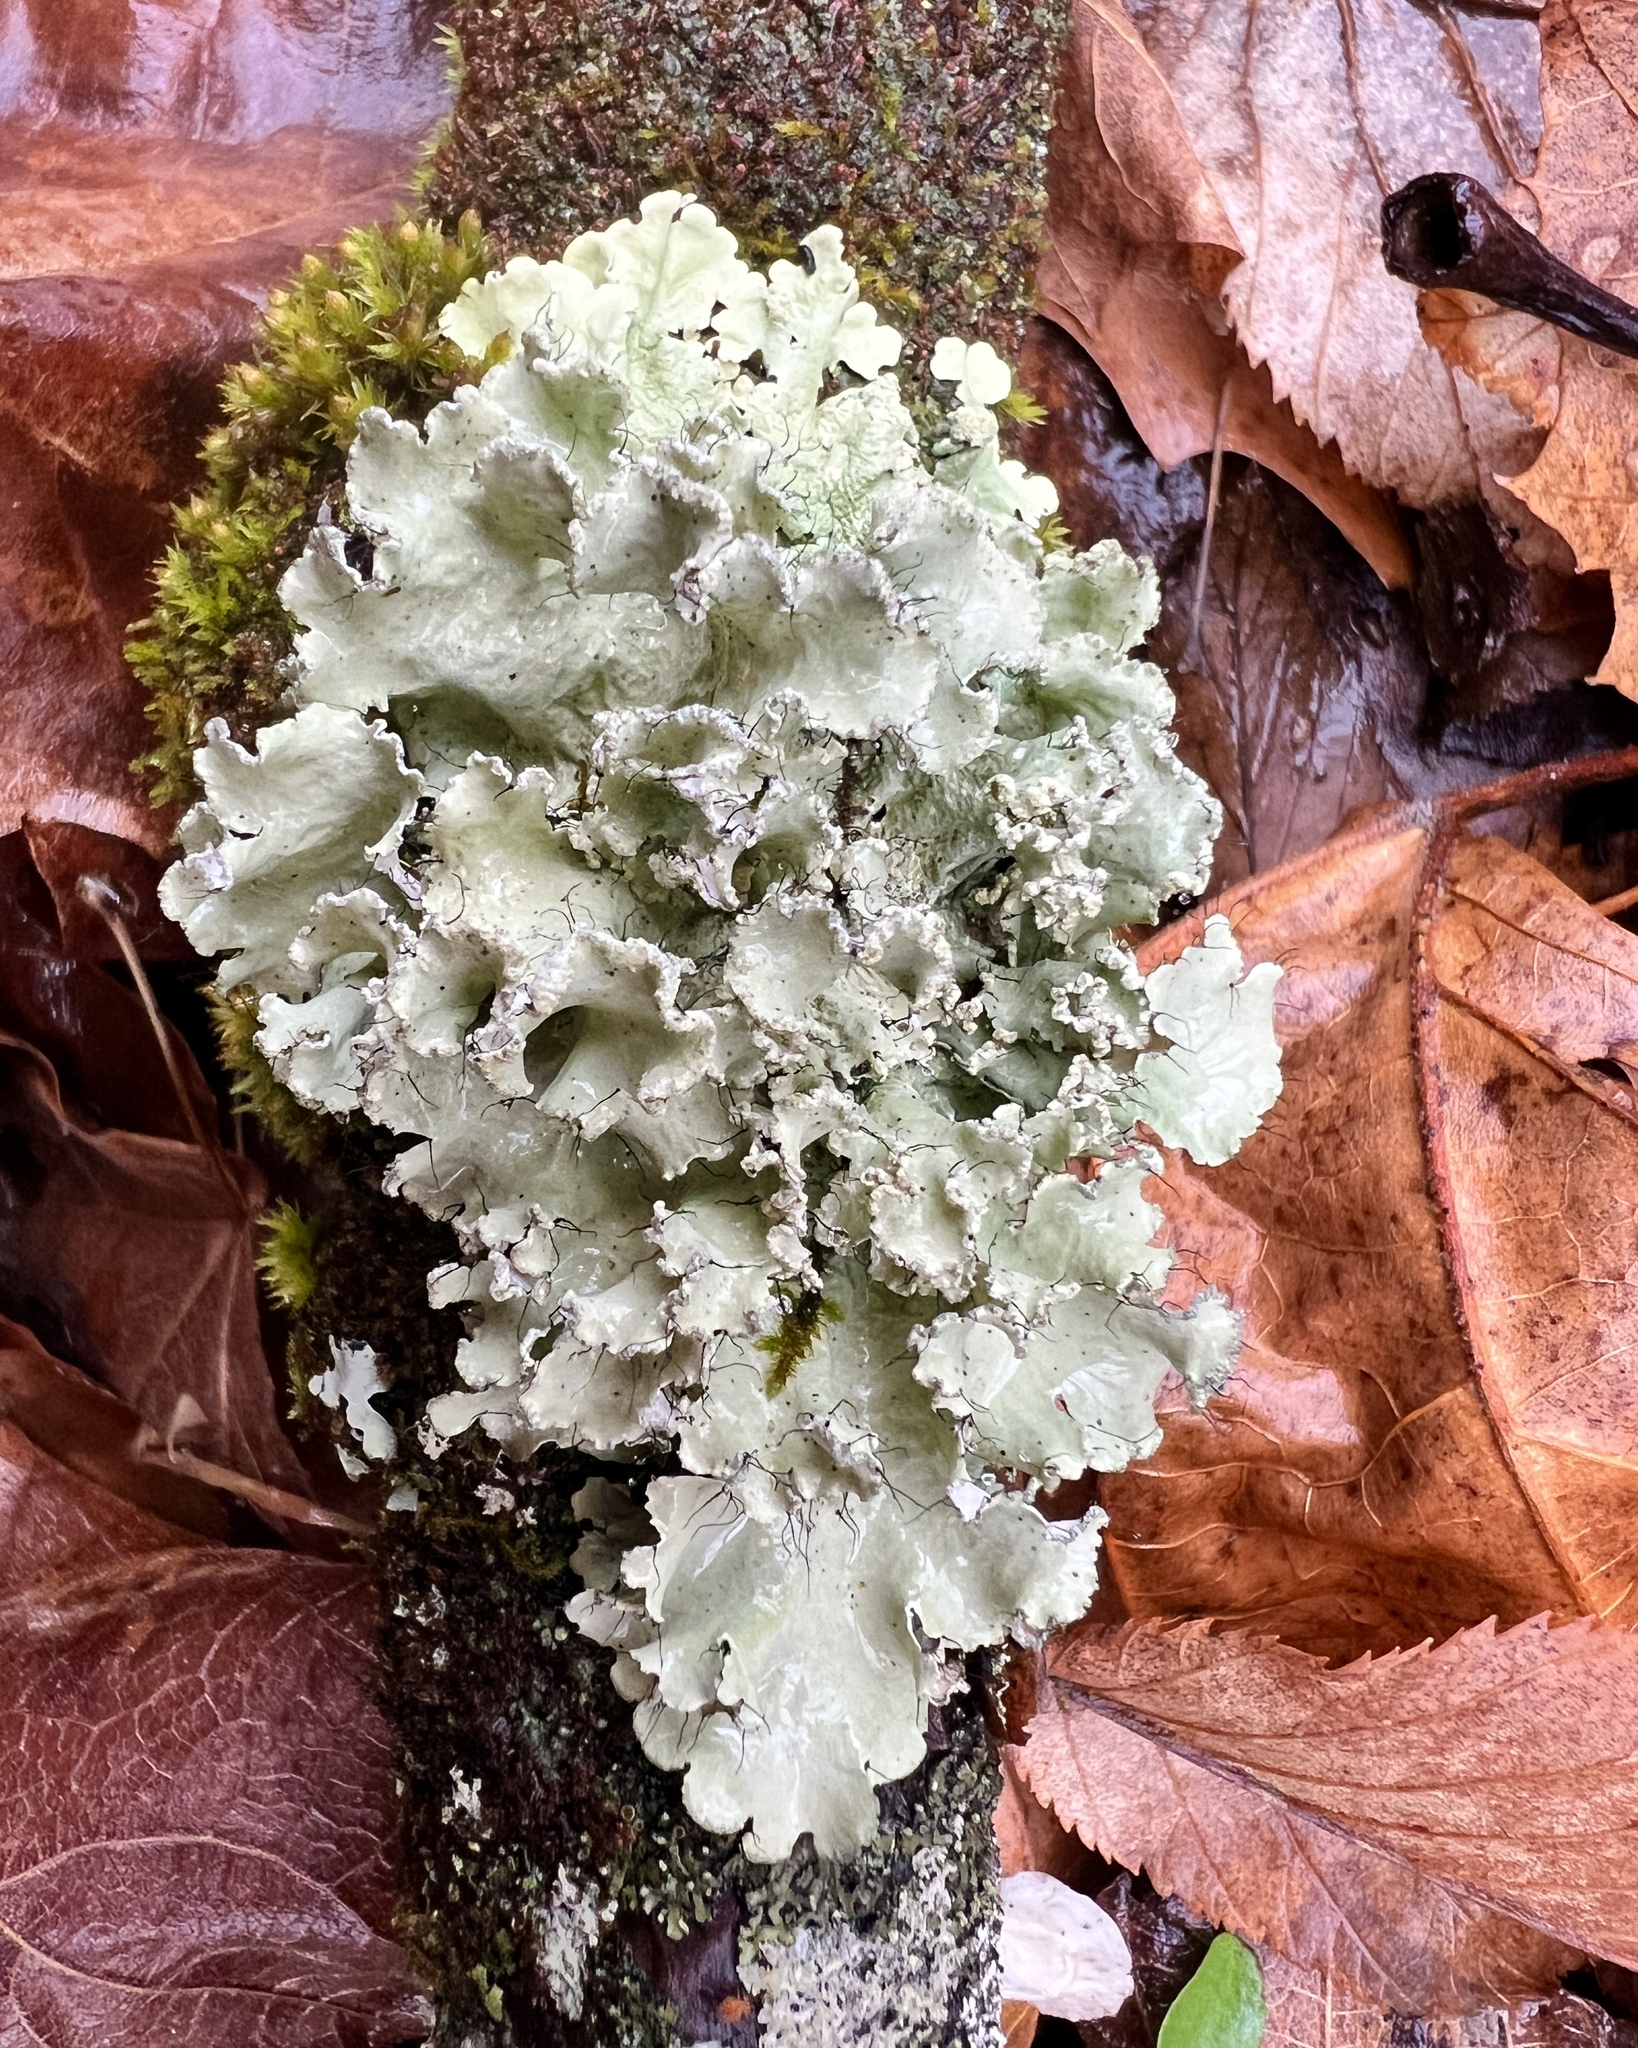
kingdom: Fungi
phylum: Ascomycota
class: Lecanoromycetes
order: Lecanorales
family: Parmeliaceae
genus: Parmotrema
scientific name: Parmotrema hypotropum
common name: Powdered ruffle lichen
